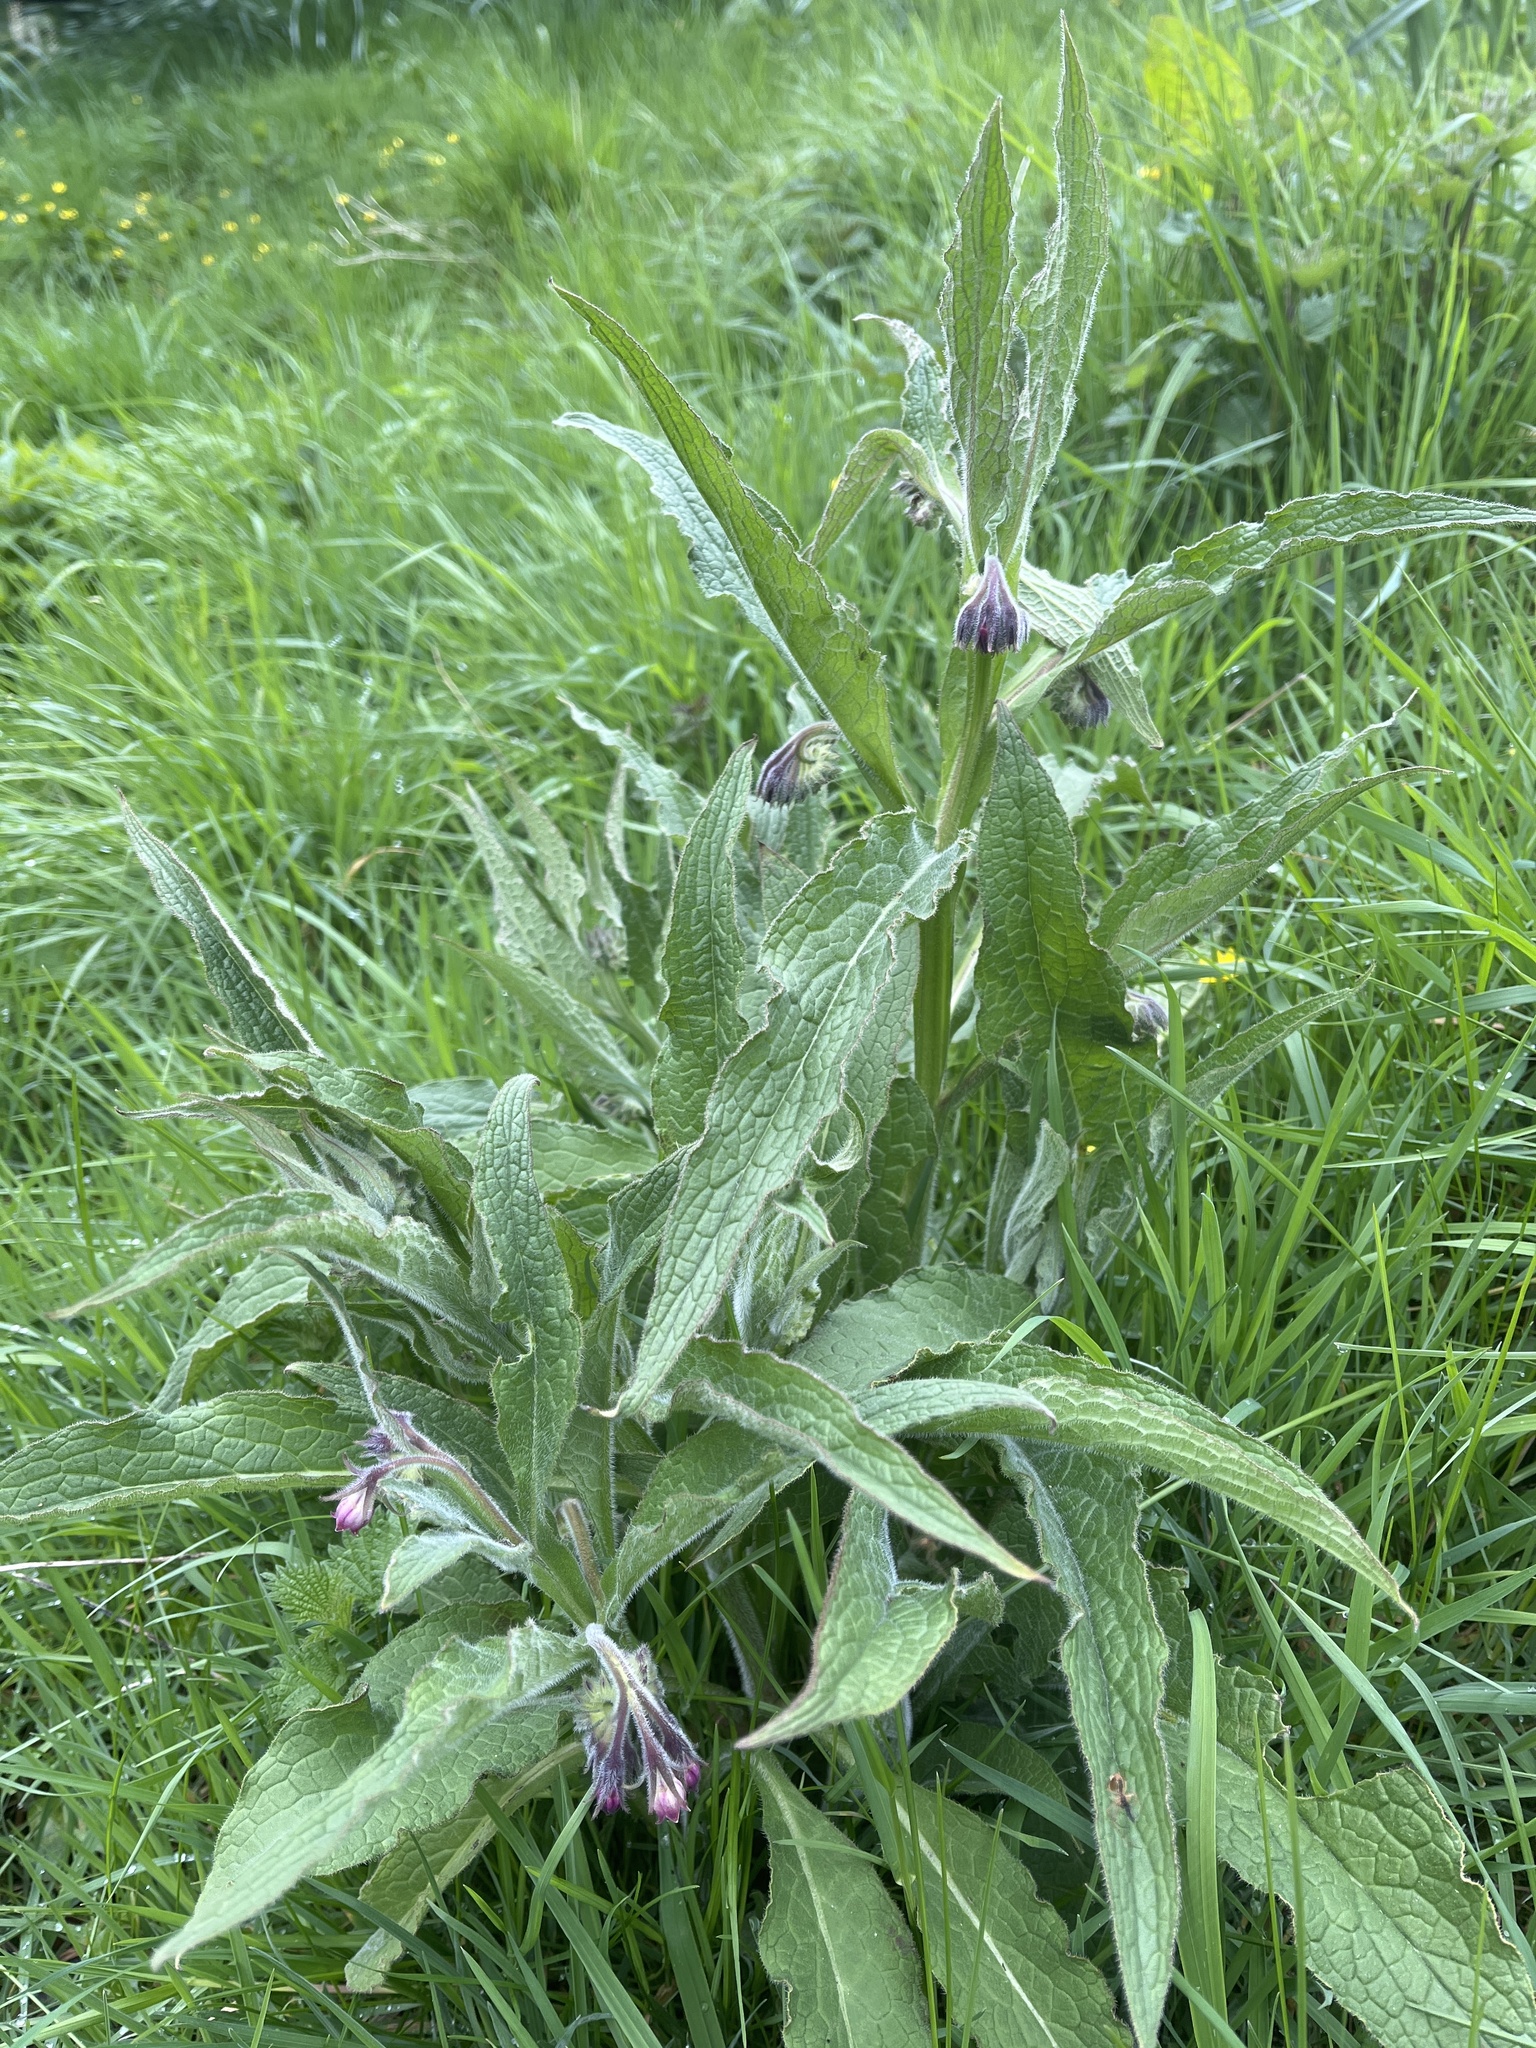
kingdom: Plantae
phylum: Tracheophyta
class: Magnoliopsida
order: Boraginales
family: Boraginaceae
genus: Symphytum
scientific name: Symphytum officinale
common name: Common comfrey
